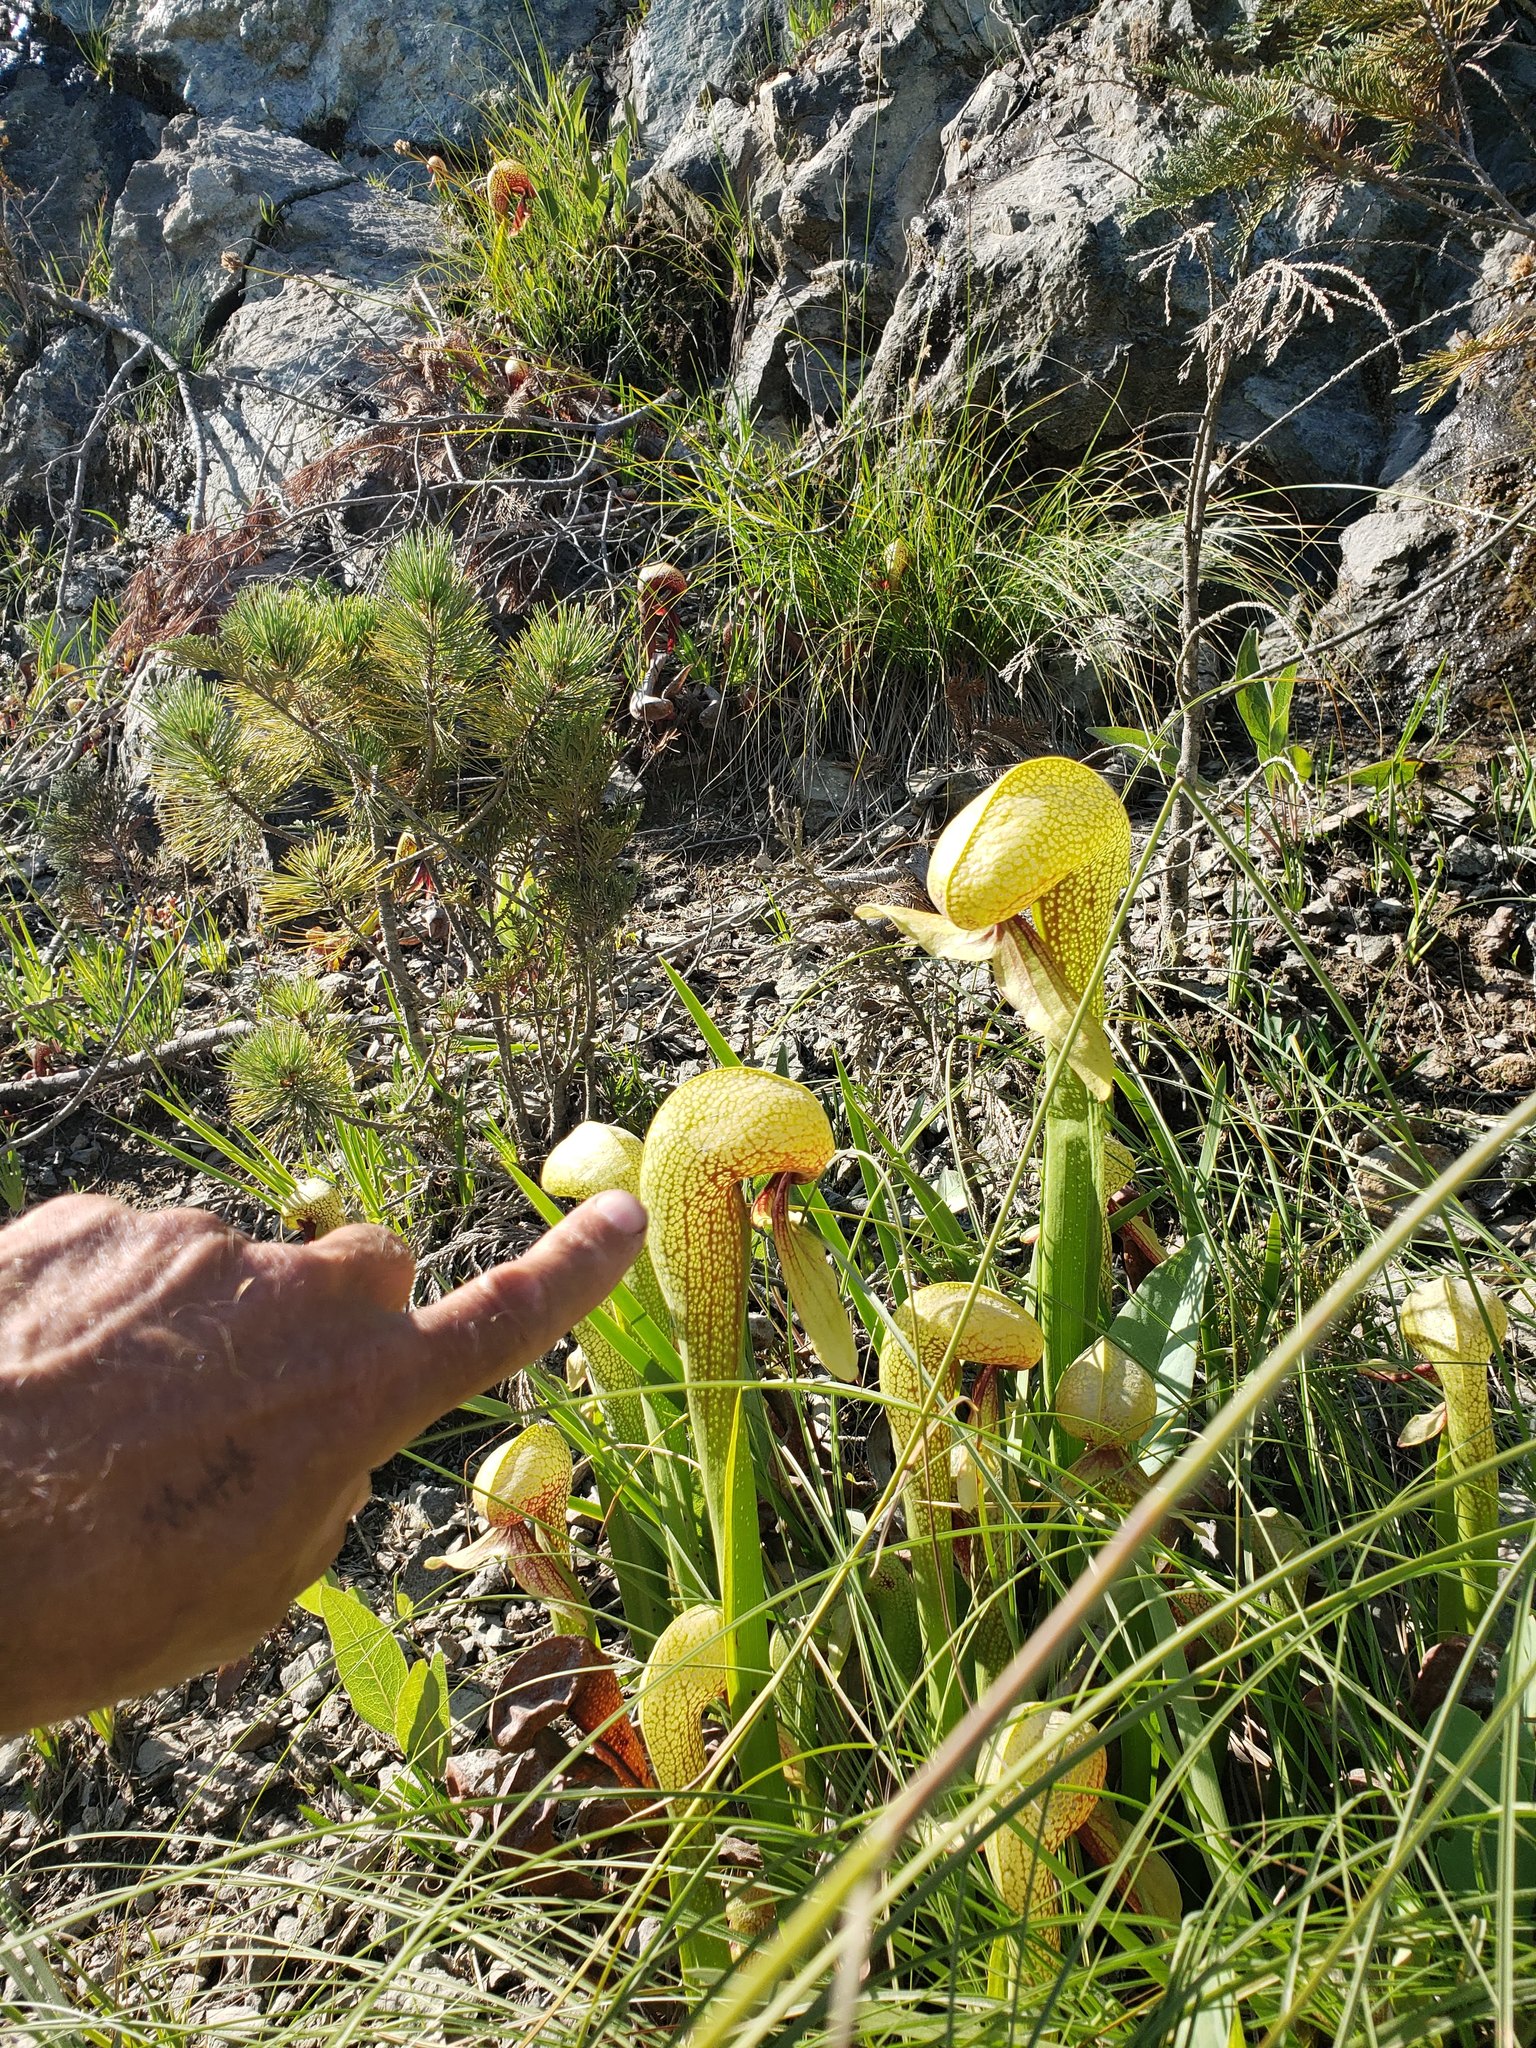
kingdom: Plantae
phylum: Tracheophyta
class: Magnoliopsida
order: Ericales
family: Sarraceniaceae
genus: Darlingtonia
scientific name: Darlingtonia californica
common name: California pitcher plant
